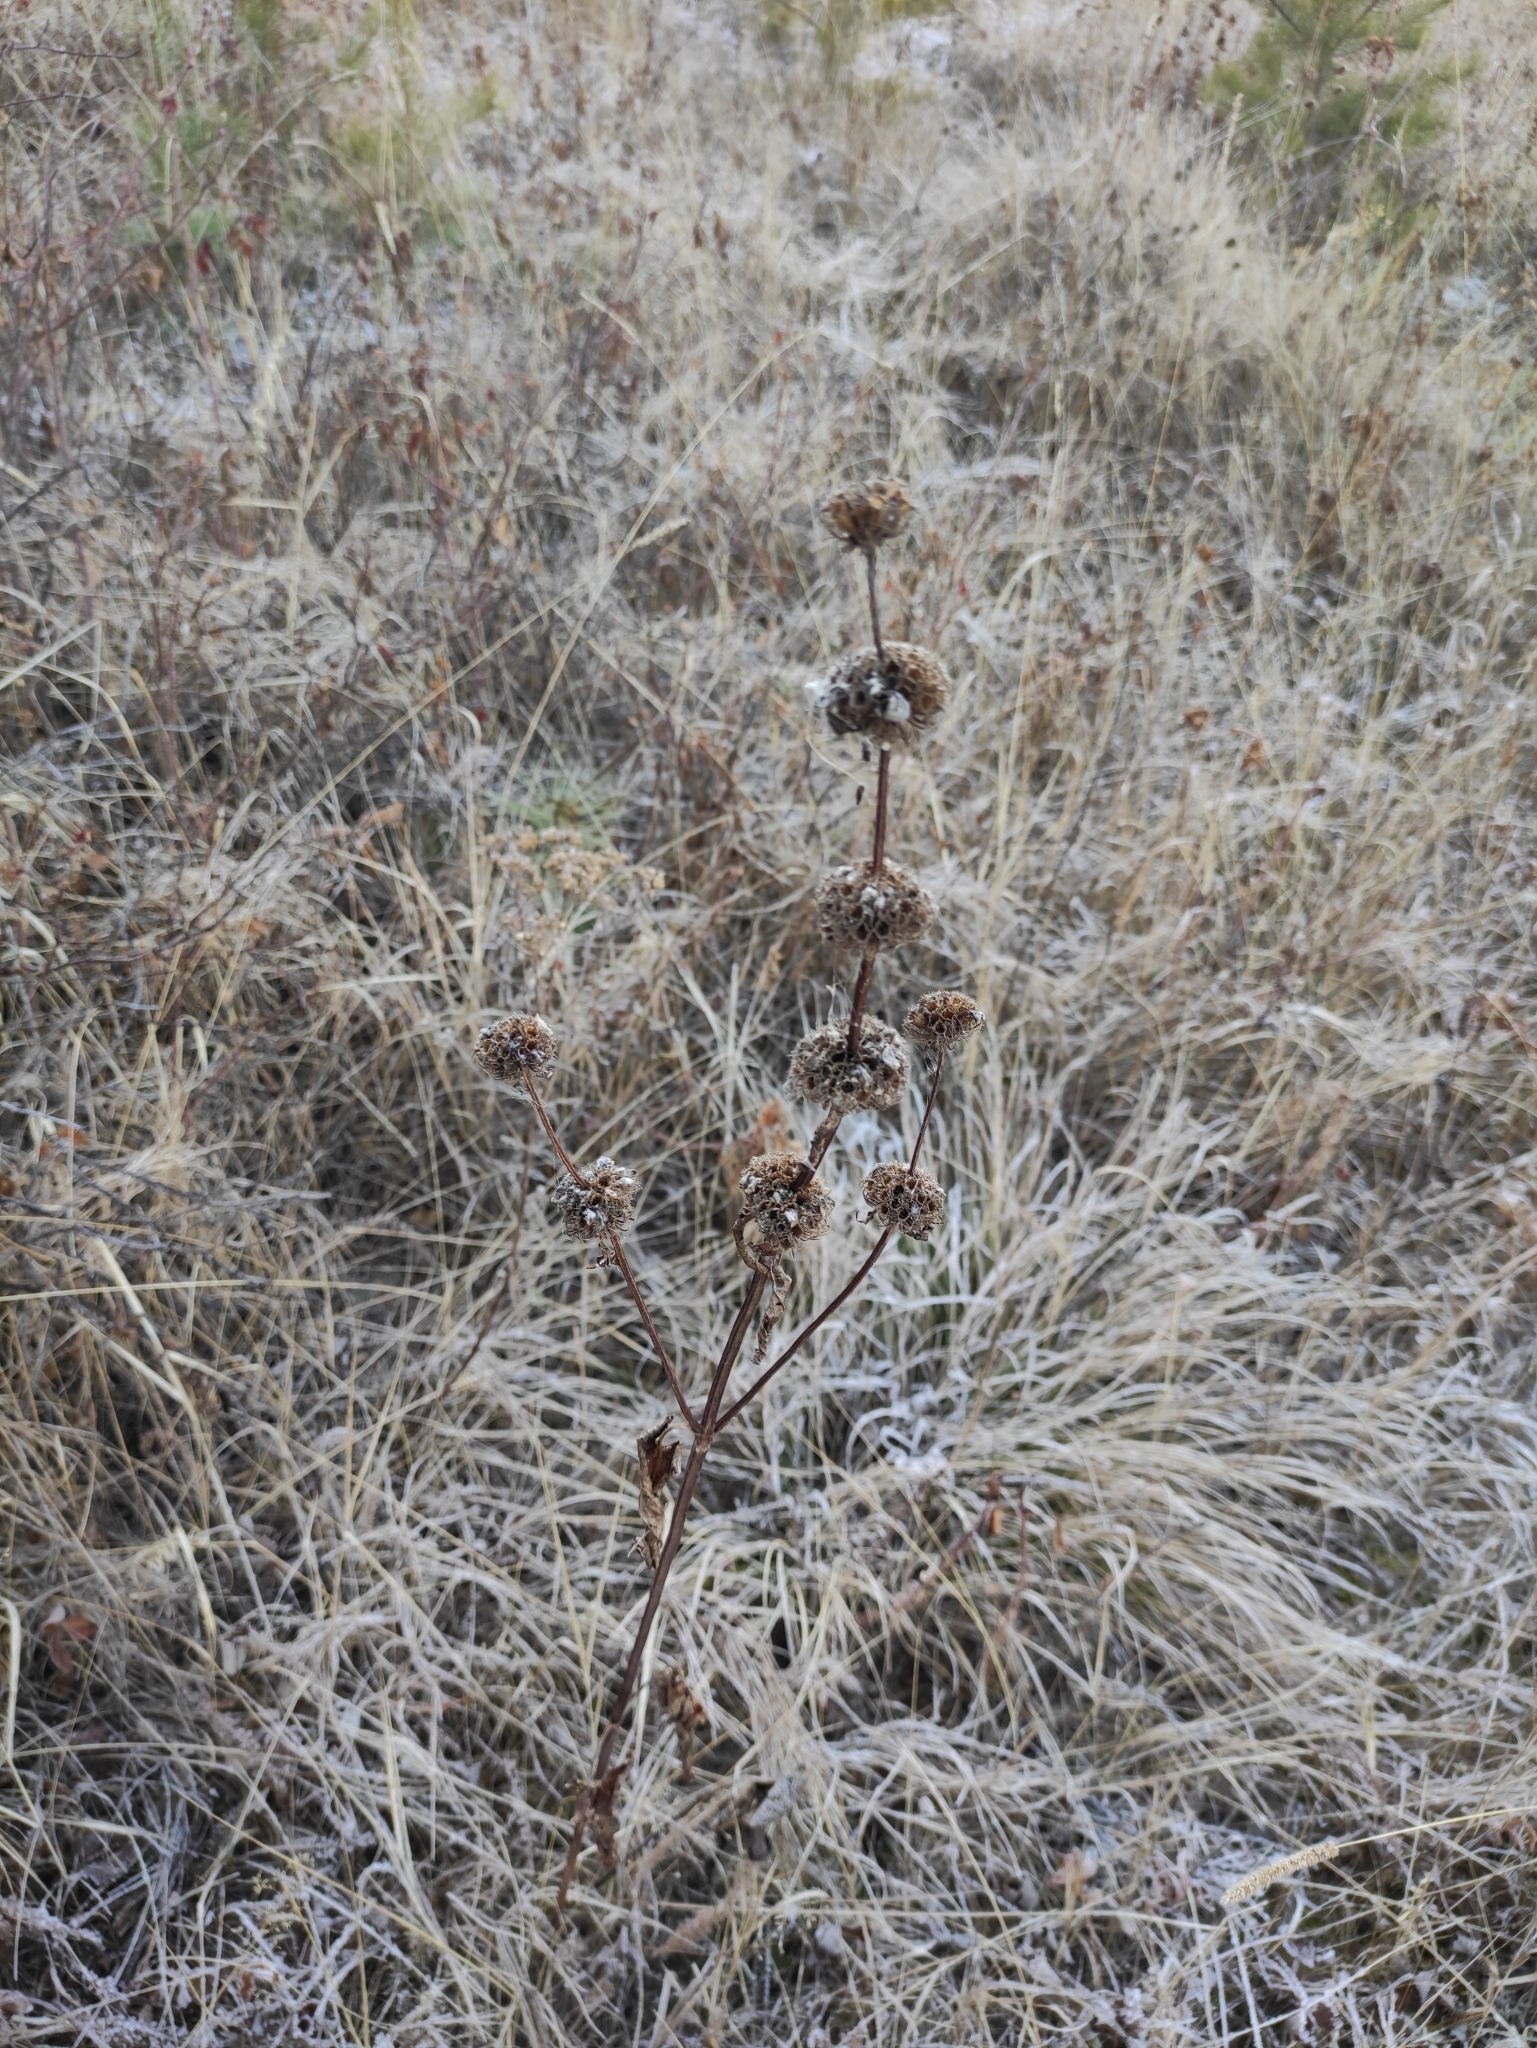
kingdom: Plantae
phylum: Tracheophyta
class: Magnoliopsida
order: Lamiales
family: Lamiaceae
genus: Phlomoides
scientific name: Phlomoides tuberosa
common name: Tuberous jerusalem sage
